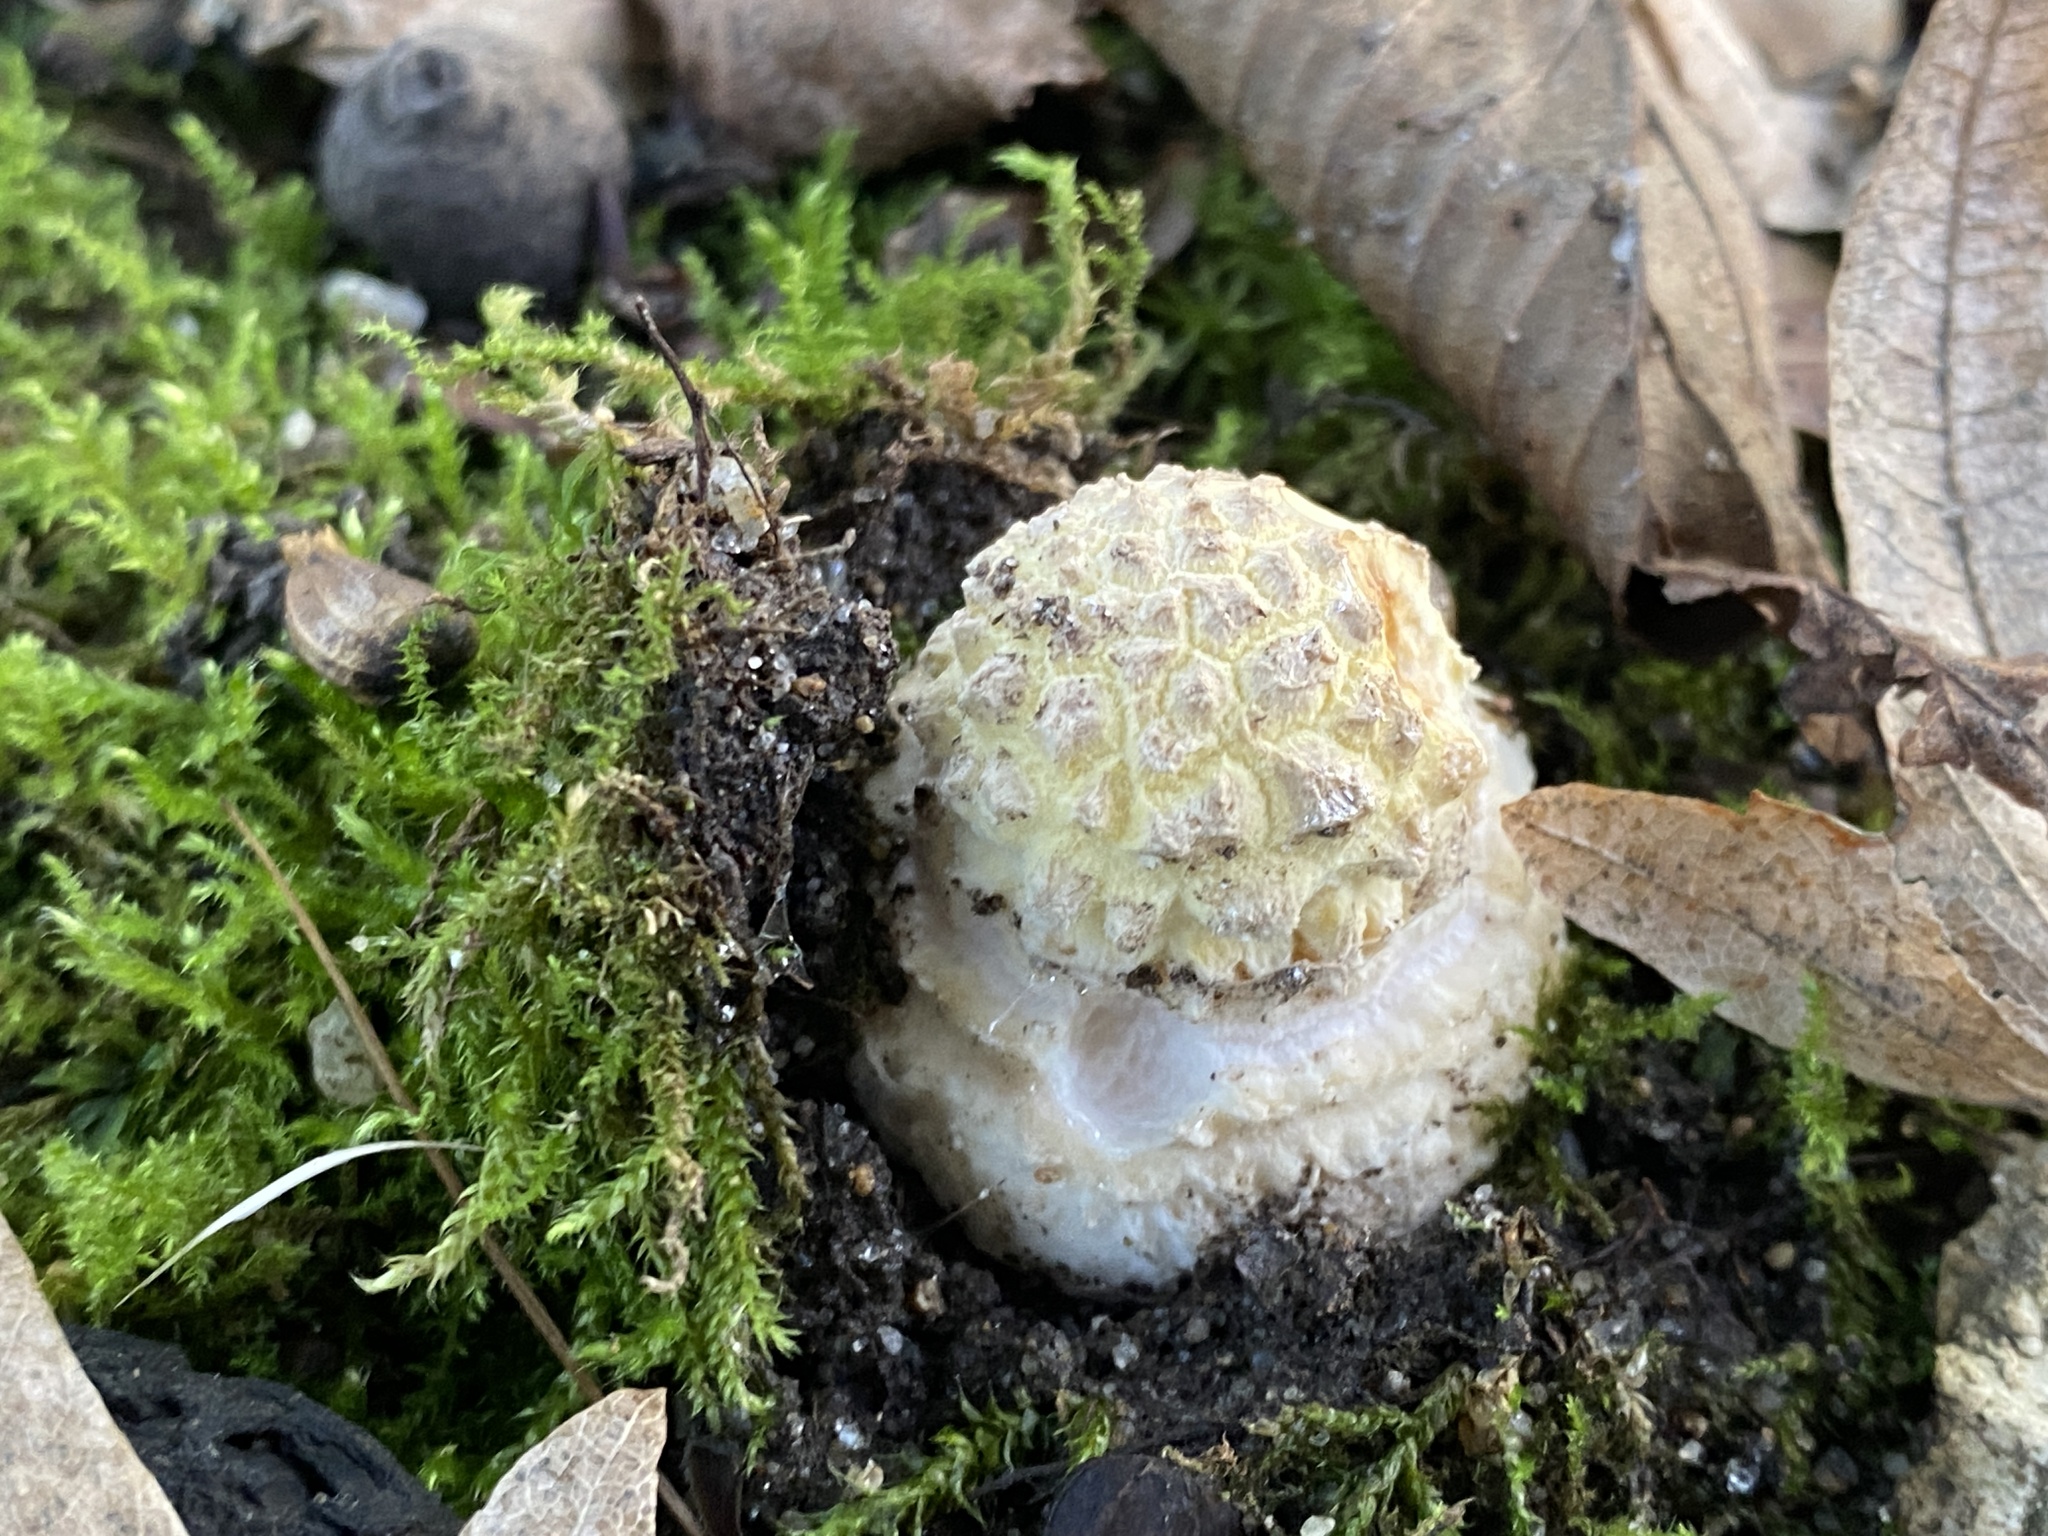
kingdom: Fungi
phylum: Basidiomycota
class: Agaricomycetes
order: Agaricales
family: Amanitaceae
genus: Amanita
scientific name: Amanita muscaria
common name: Fly agaric
